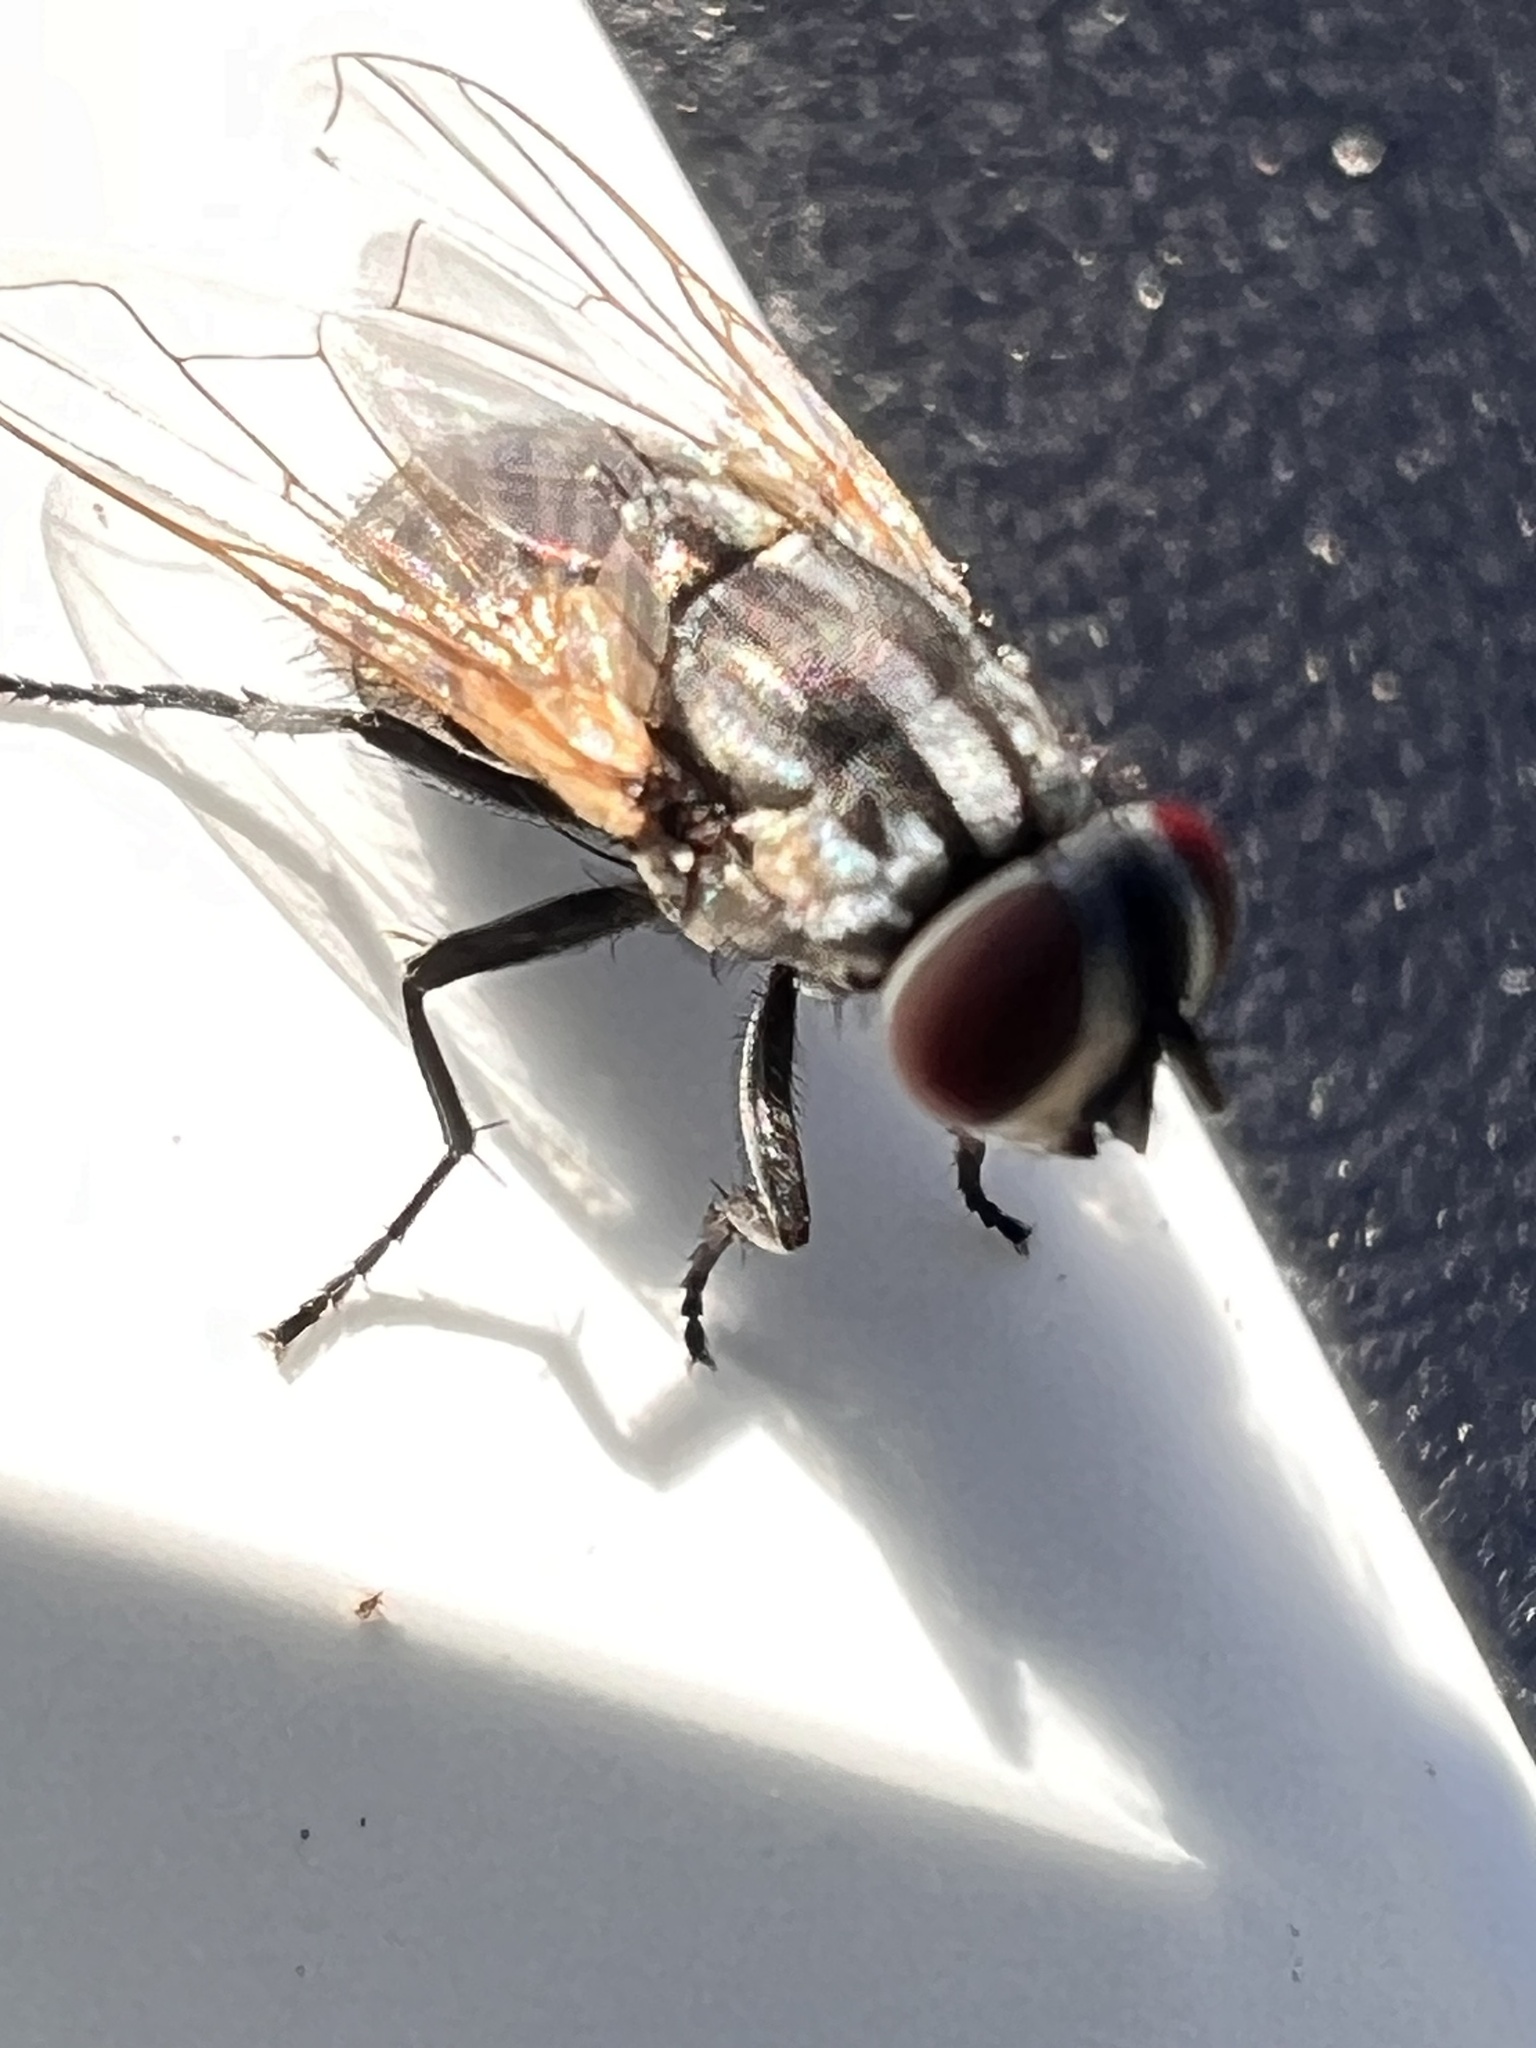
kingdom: Animalia
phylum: Arthropoda
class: Insecta
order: Diptera
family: Muscidae
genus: Musca
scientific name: Musca vetustissima
